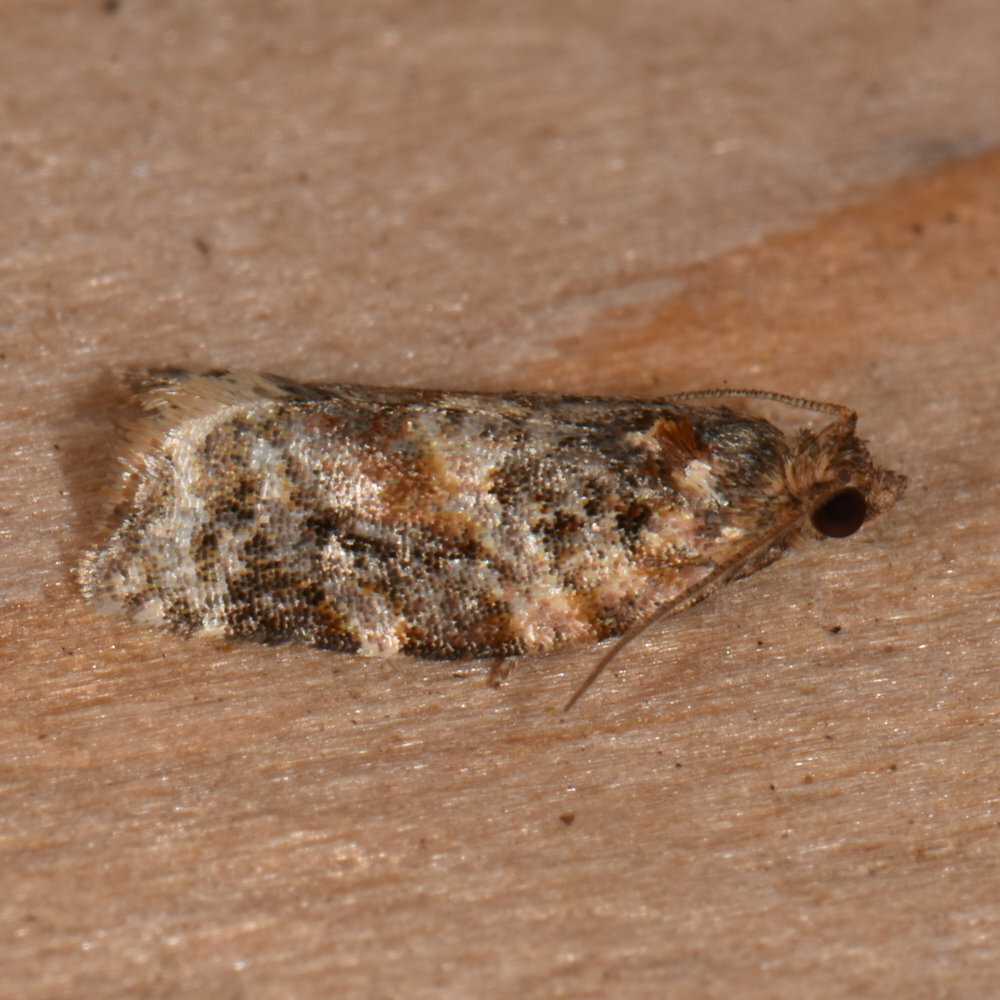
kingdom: Animalia
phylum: Arthropoda
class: Insecta
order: Lepidoptera
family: Tortricidae
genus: Argyrotaenia
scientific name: Argyrotaenia velutinana
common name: Red-banded leafroller moth
